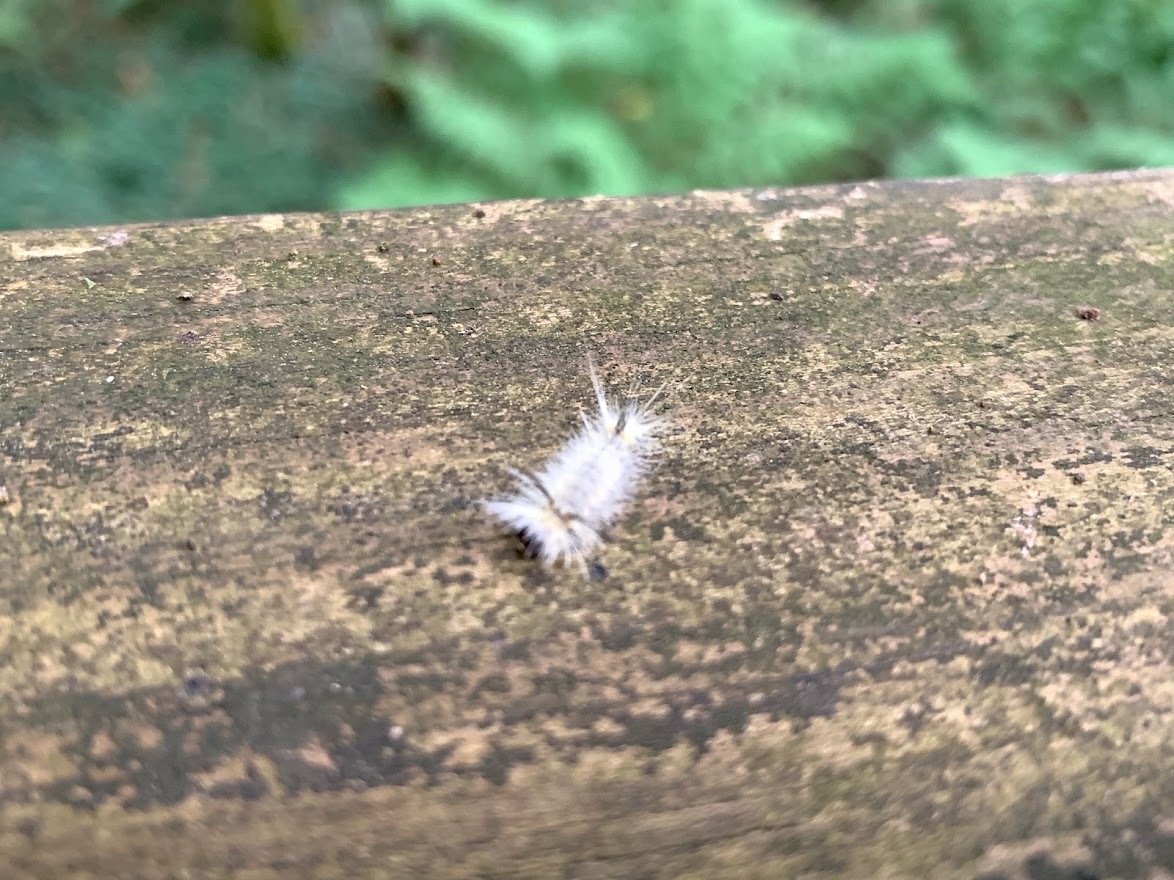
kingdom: Animalia
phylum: Arthropoda
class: Insecta
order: Lepidoptera
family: Erebidae
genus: Halysidota
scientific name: Halysidota tessellaris
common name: Banded tussock moth
